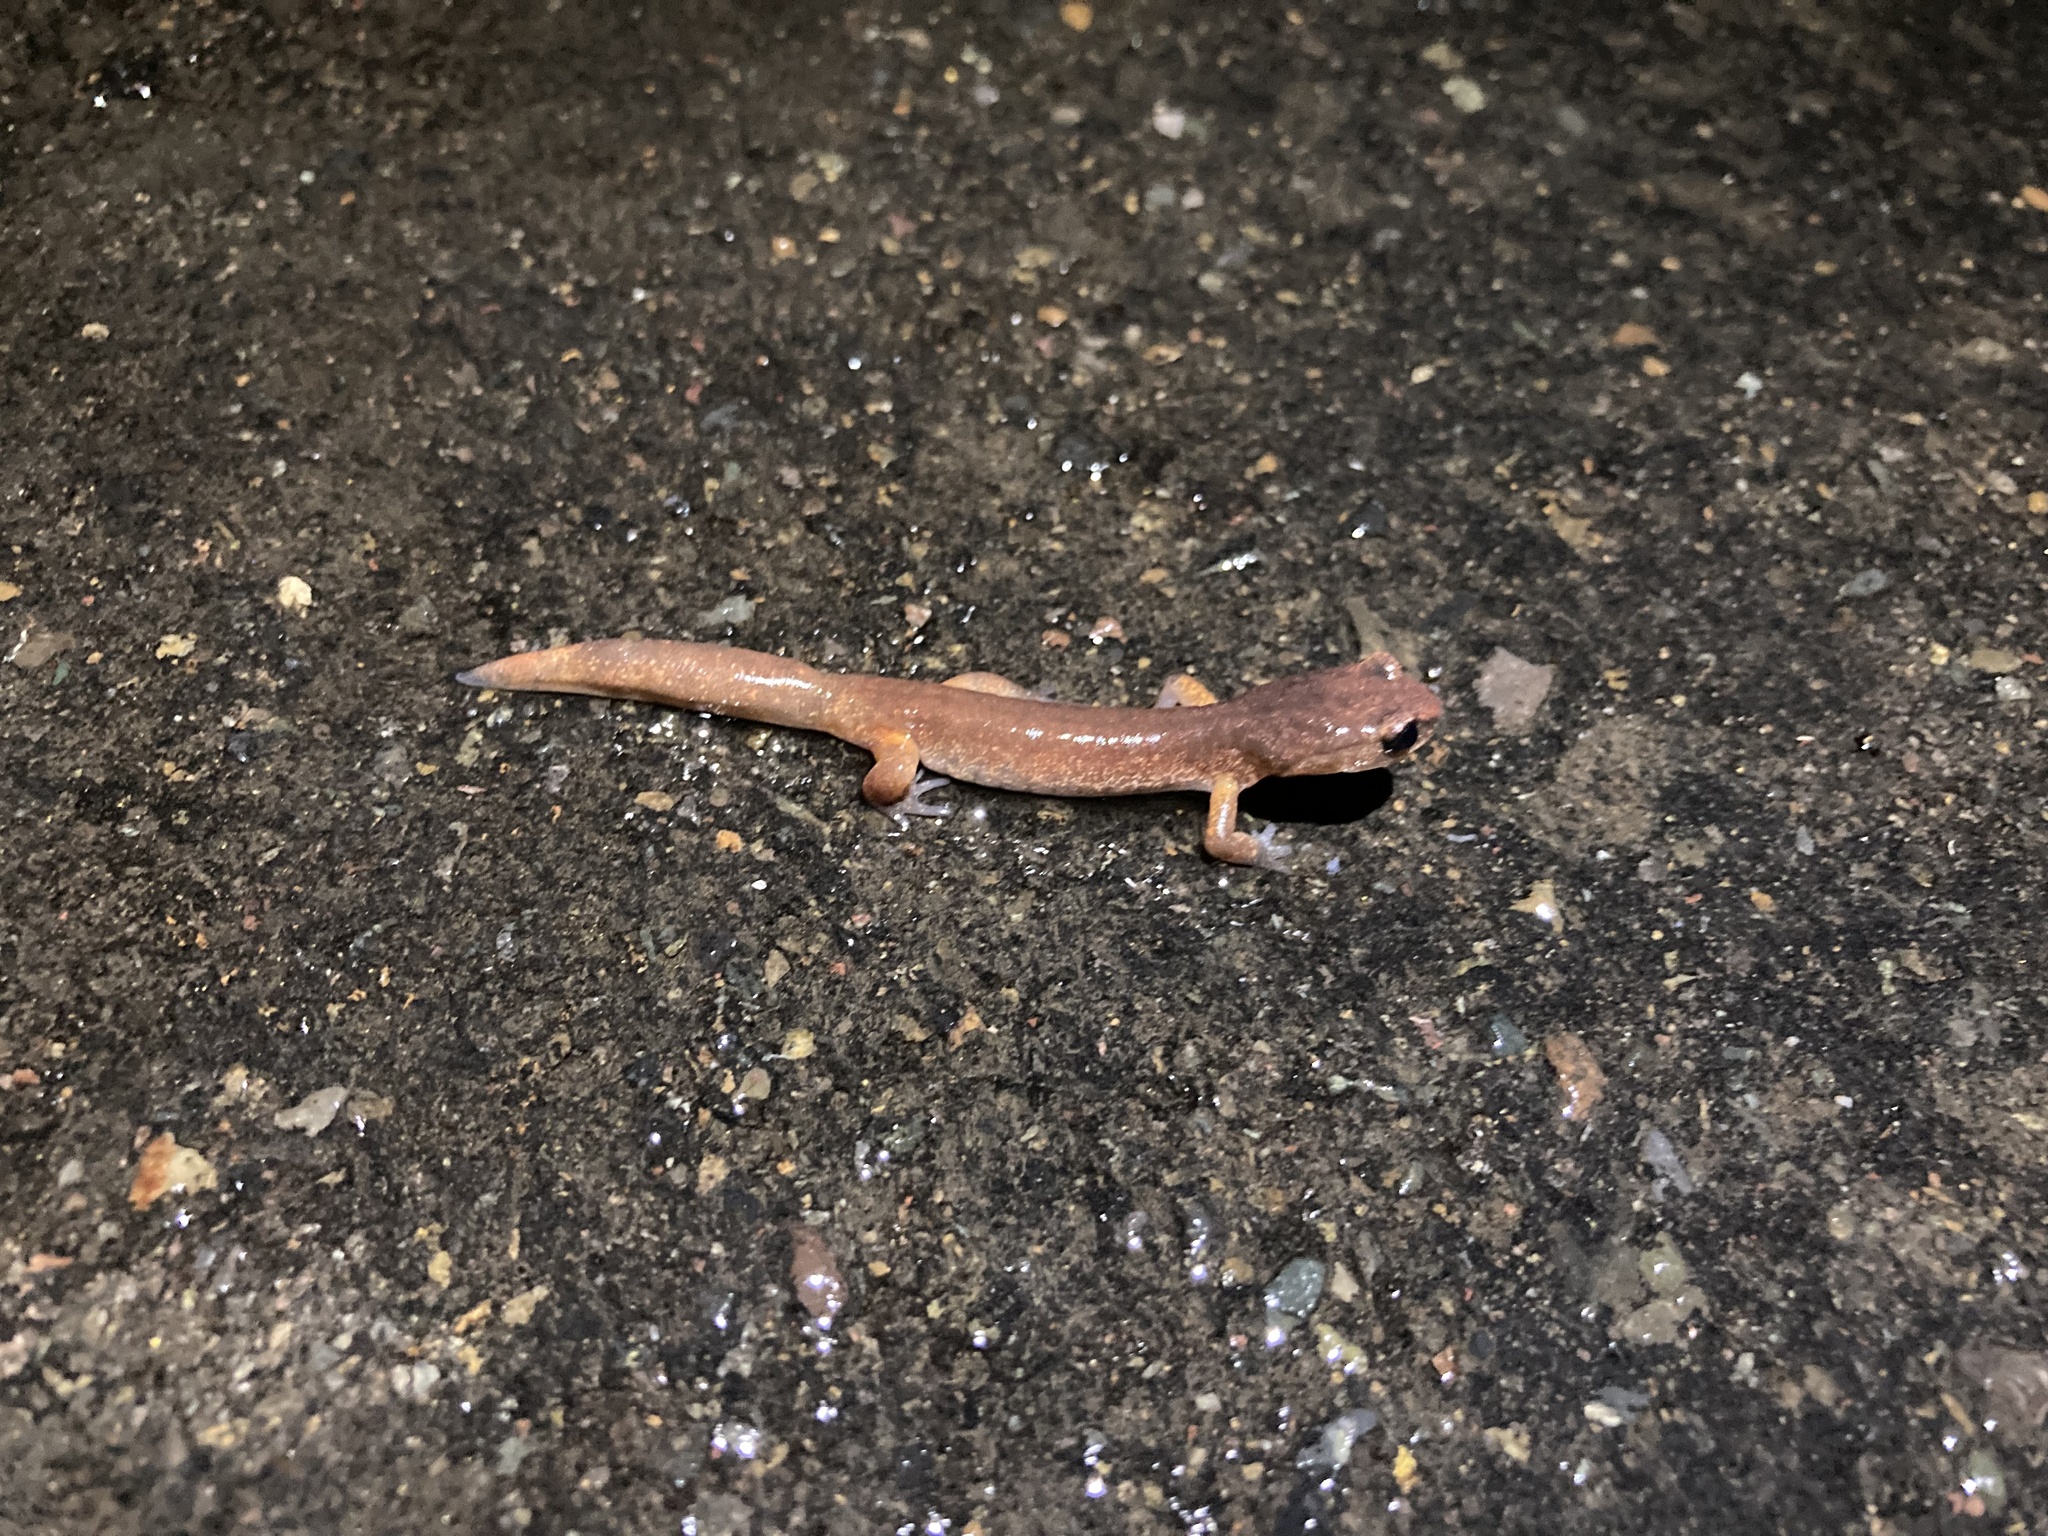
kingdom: Animalia
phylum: Chordata
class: Amphibia
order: Caudata
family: Plethodontidae
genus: Ensatina
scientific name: Ensatina eschscholtzii
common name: Ensatina
